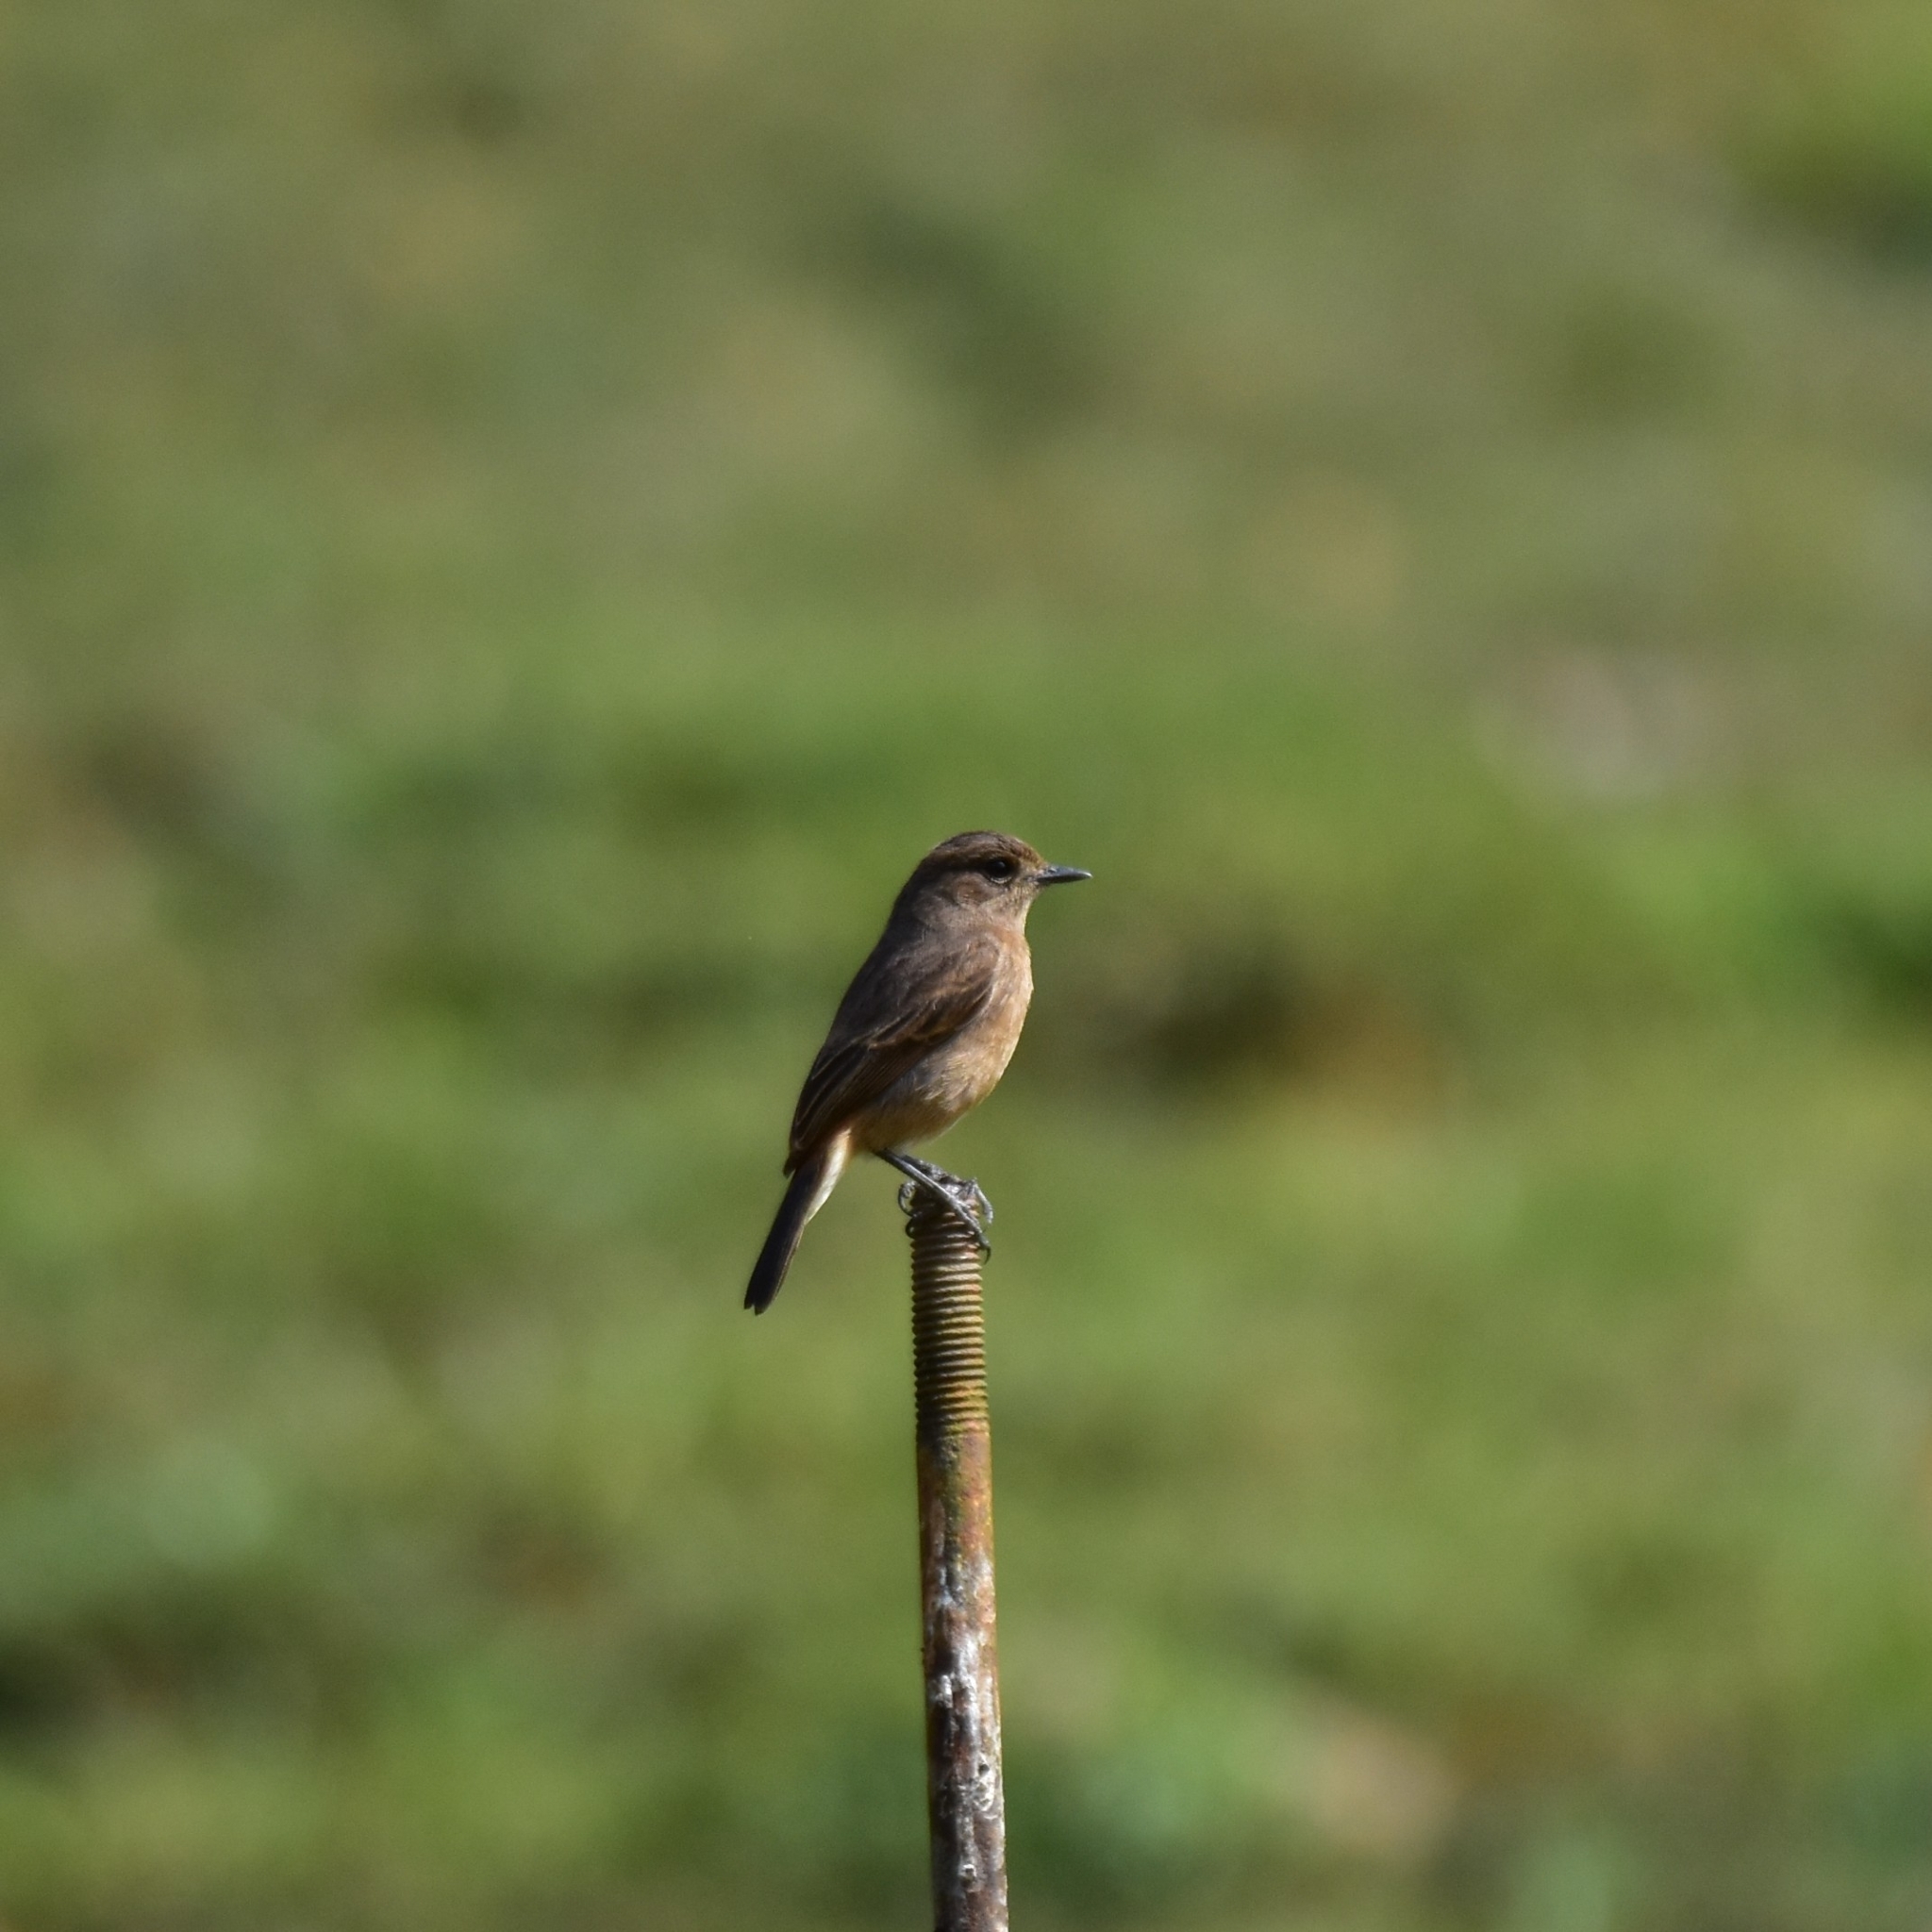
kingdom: Animalia
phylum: Chordata
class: Aves
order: Passeriformes
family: Muscicapidae
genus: Saxicola
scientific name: Saxicola caprata
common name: Pied bush chat
